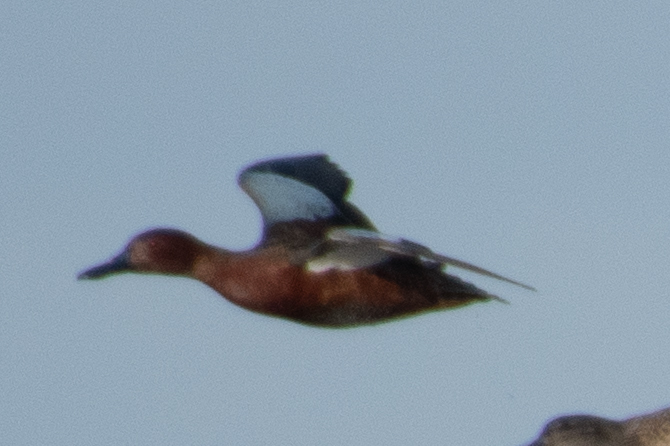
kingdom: Animalia
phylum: Chordata
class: Aves
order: Anseriformes
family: Anatidae
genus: Spatula
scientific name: Spatula cyanoptera
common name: Cinnamon teal
